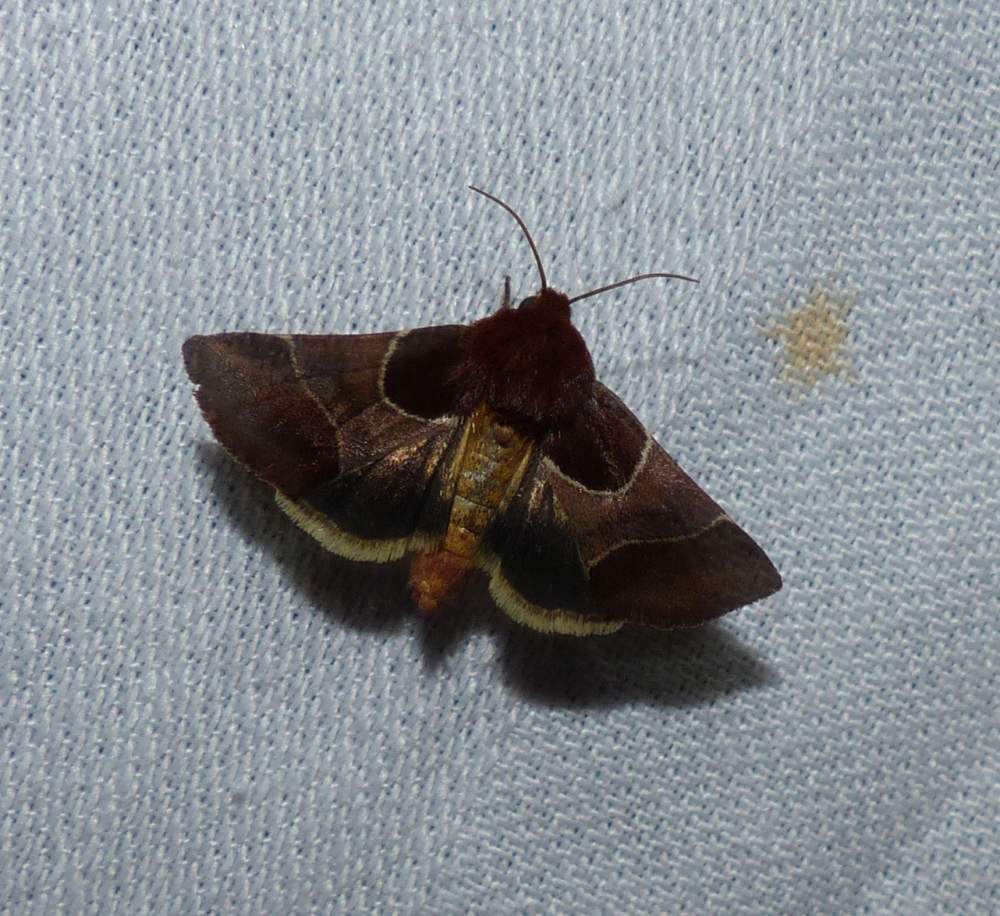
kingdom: Animalia
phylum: Arthropoda
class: Insecta
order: Lepidoptera
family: Noctuidae
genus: Schinia
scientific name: Schinia arcigera
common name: Arcigera flower moth
